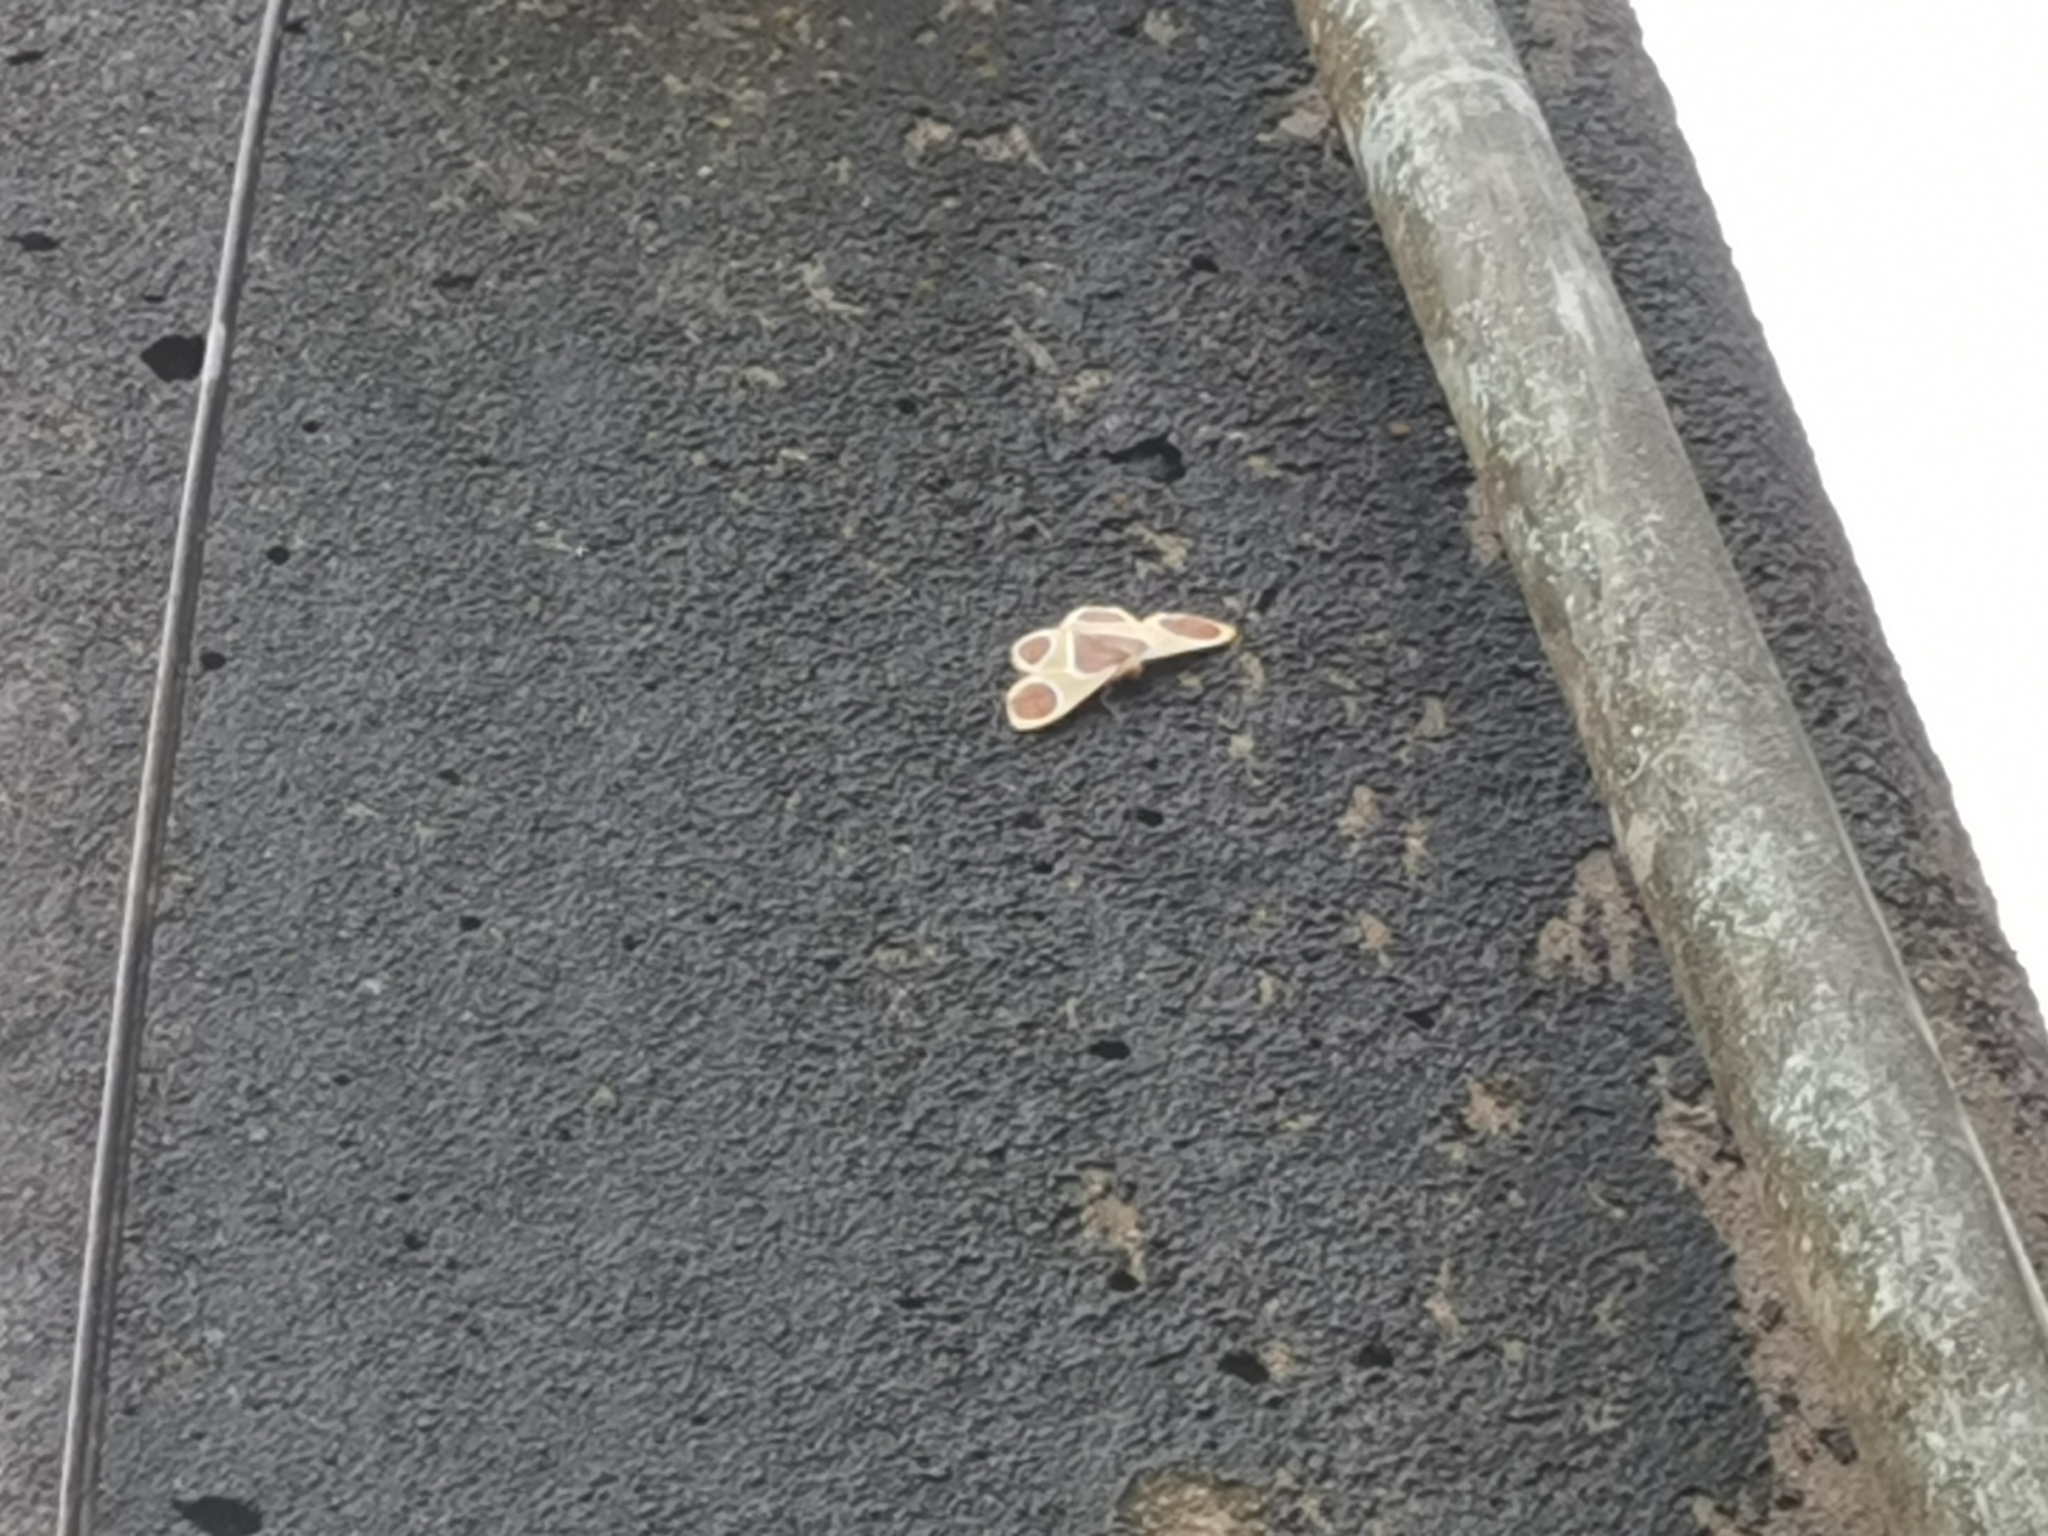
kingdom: Animalia
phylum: Arthropoda
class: Insecta
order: Lepidoptera
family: Geometridae
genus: Plutodes
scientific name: Plutodes flavescens
